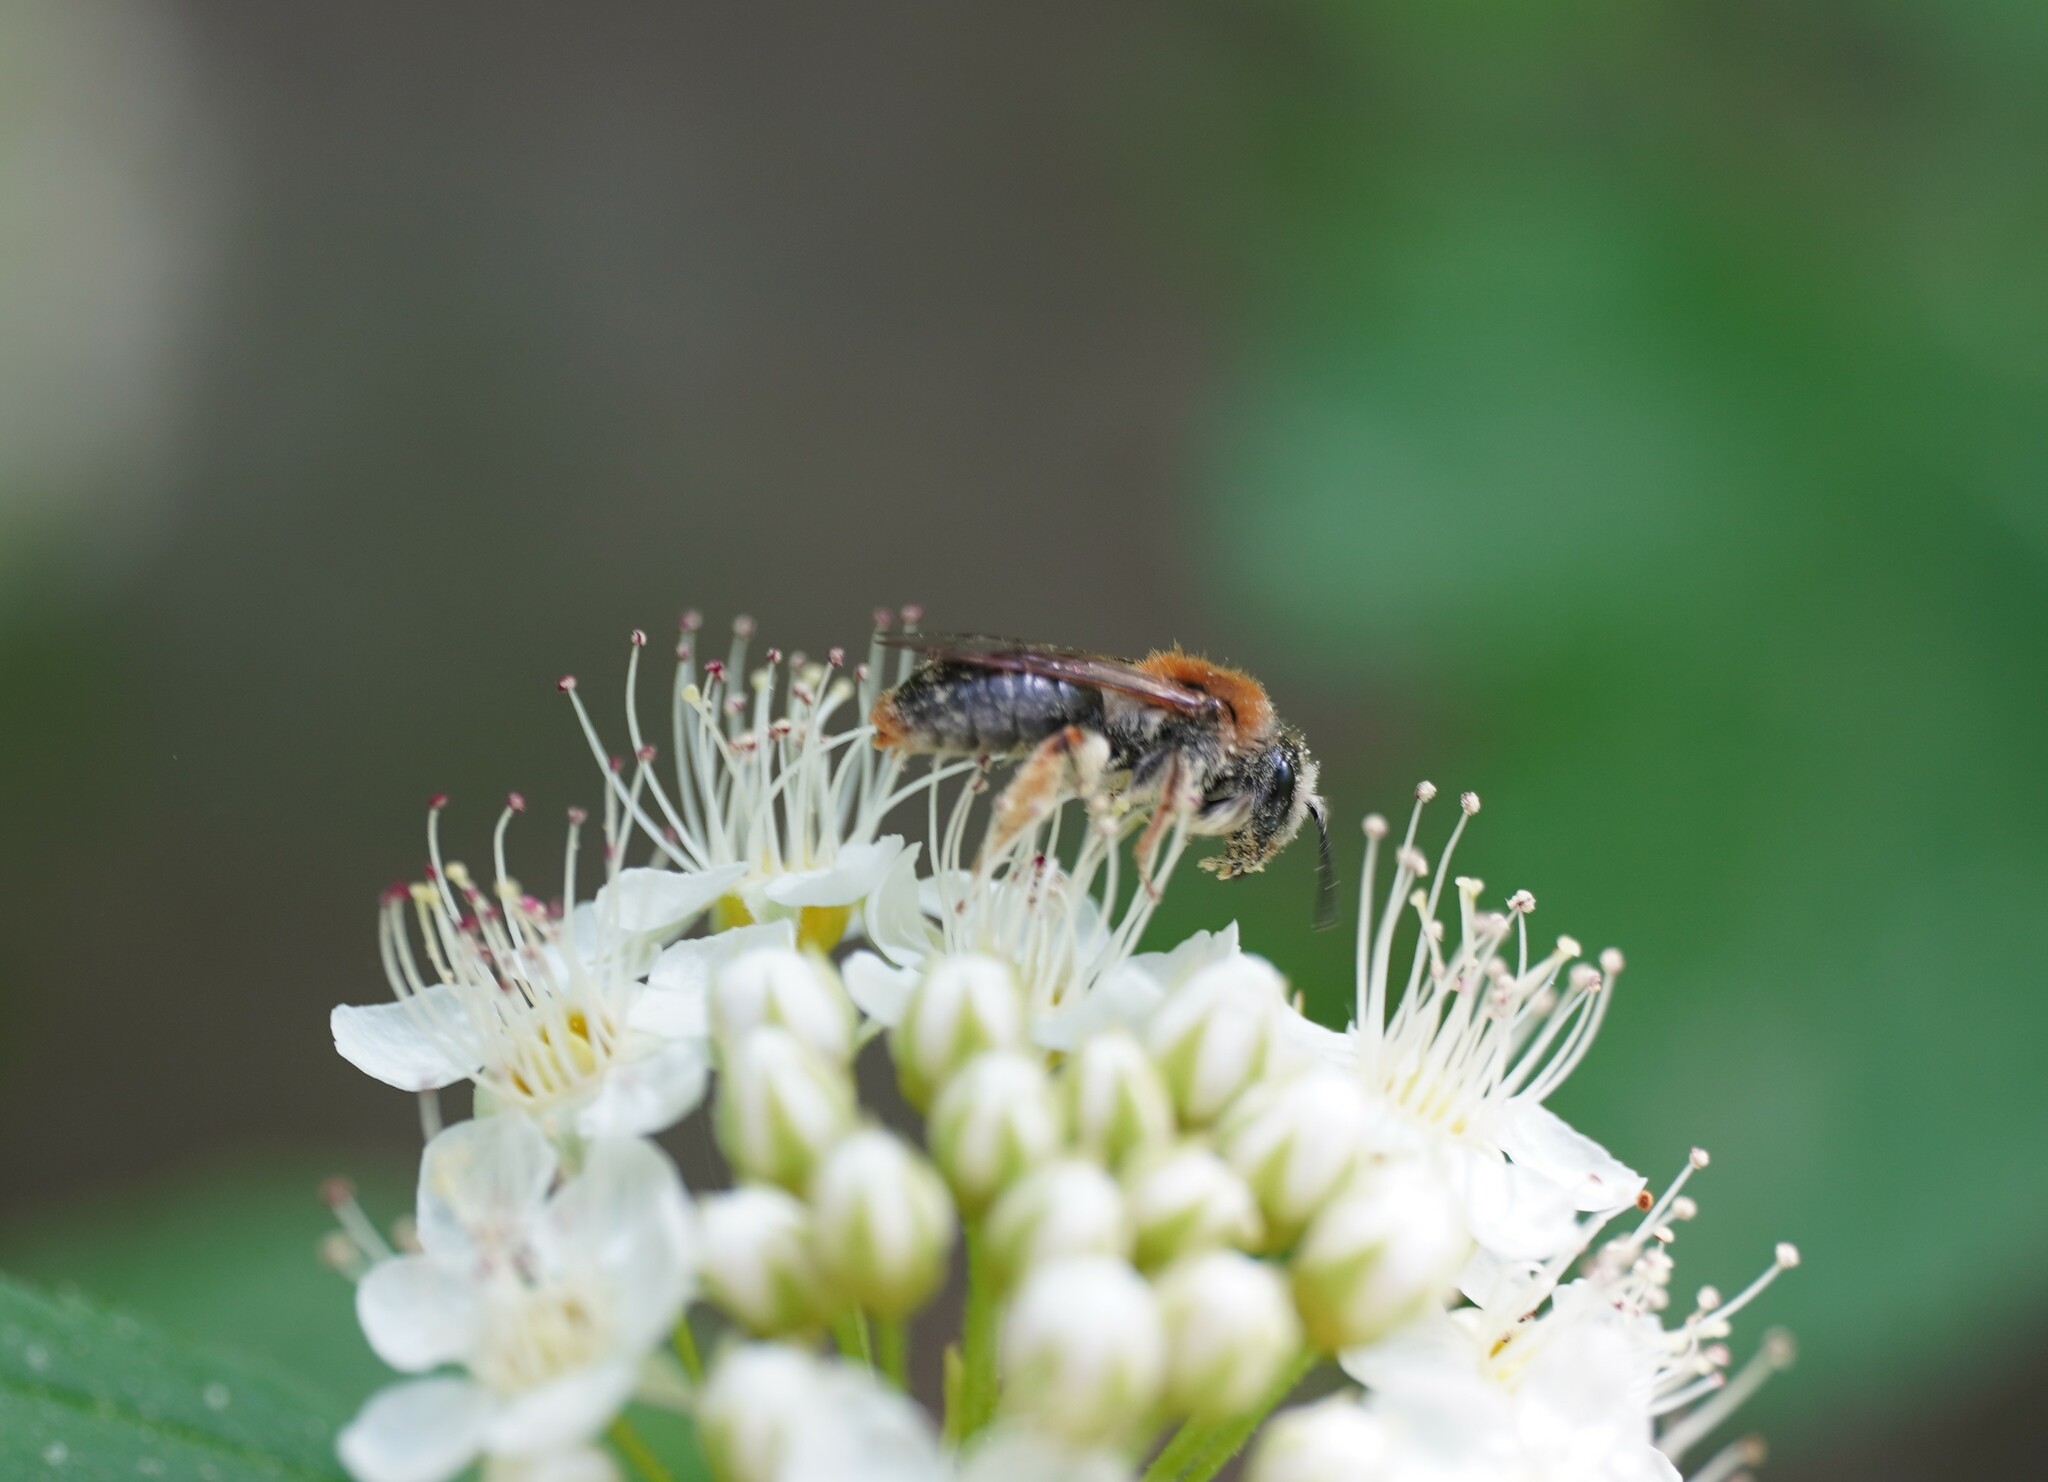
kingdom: Animalia
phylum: Arthropoda
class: Insecta
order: Hymenoptera
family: Andrenidae
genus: Andrena
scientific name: Andrena haemorrhoa
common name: Early mining bee
